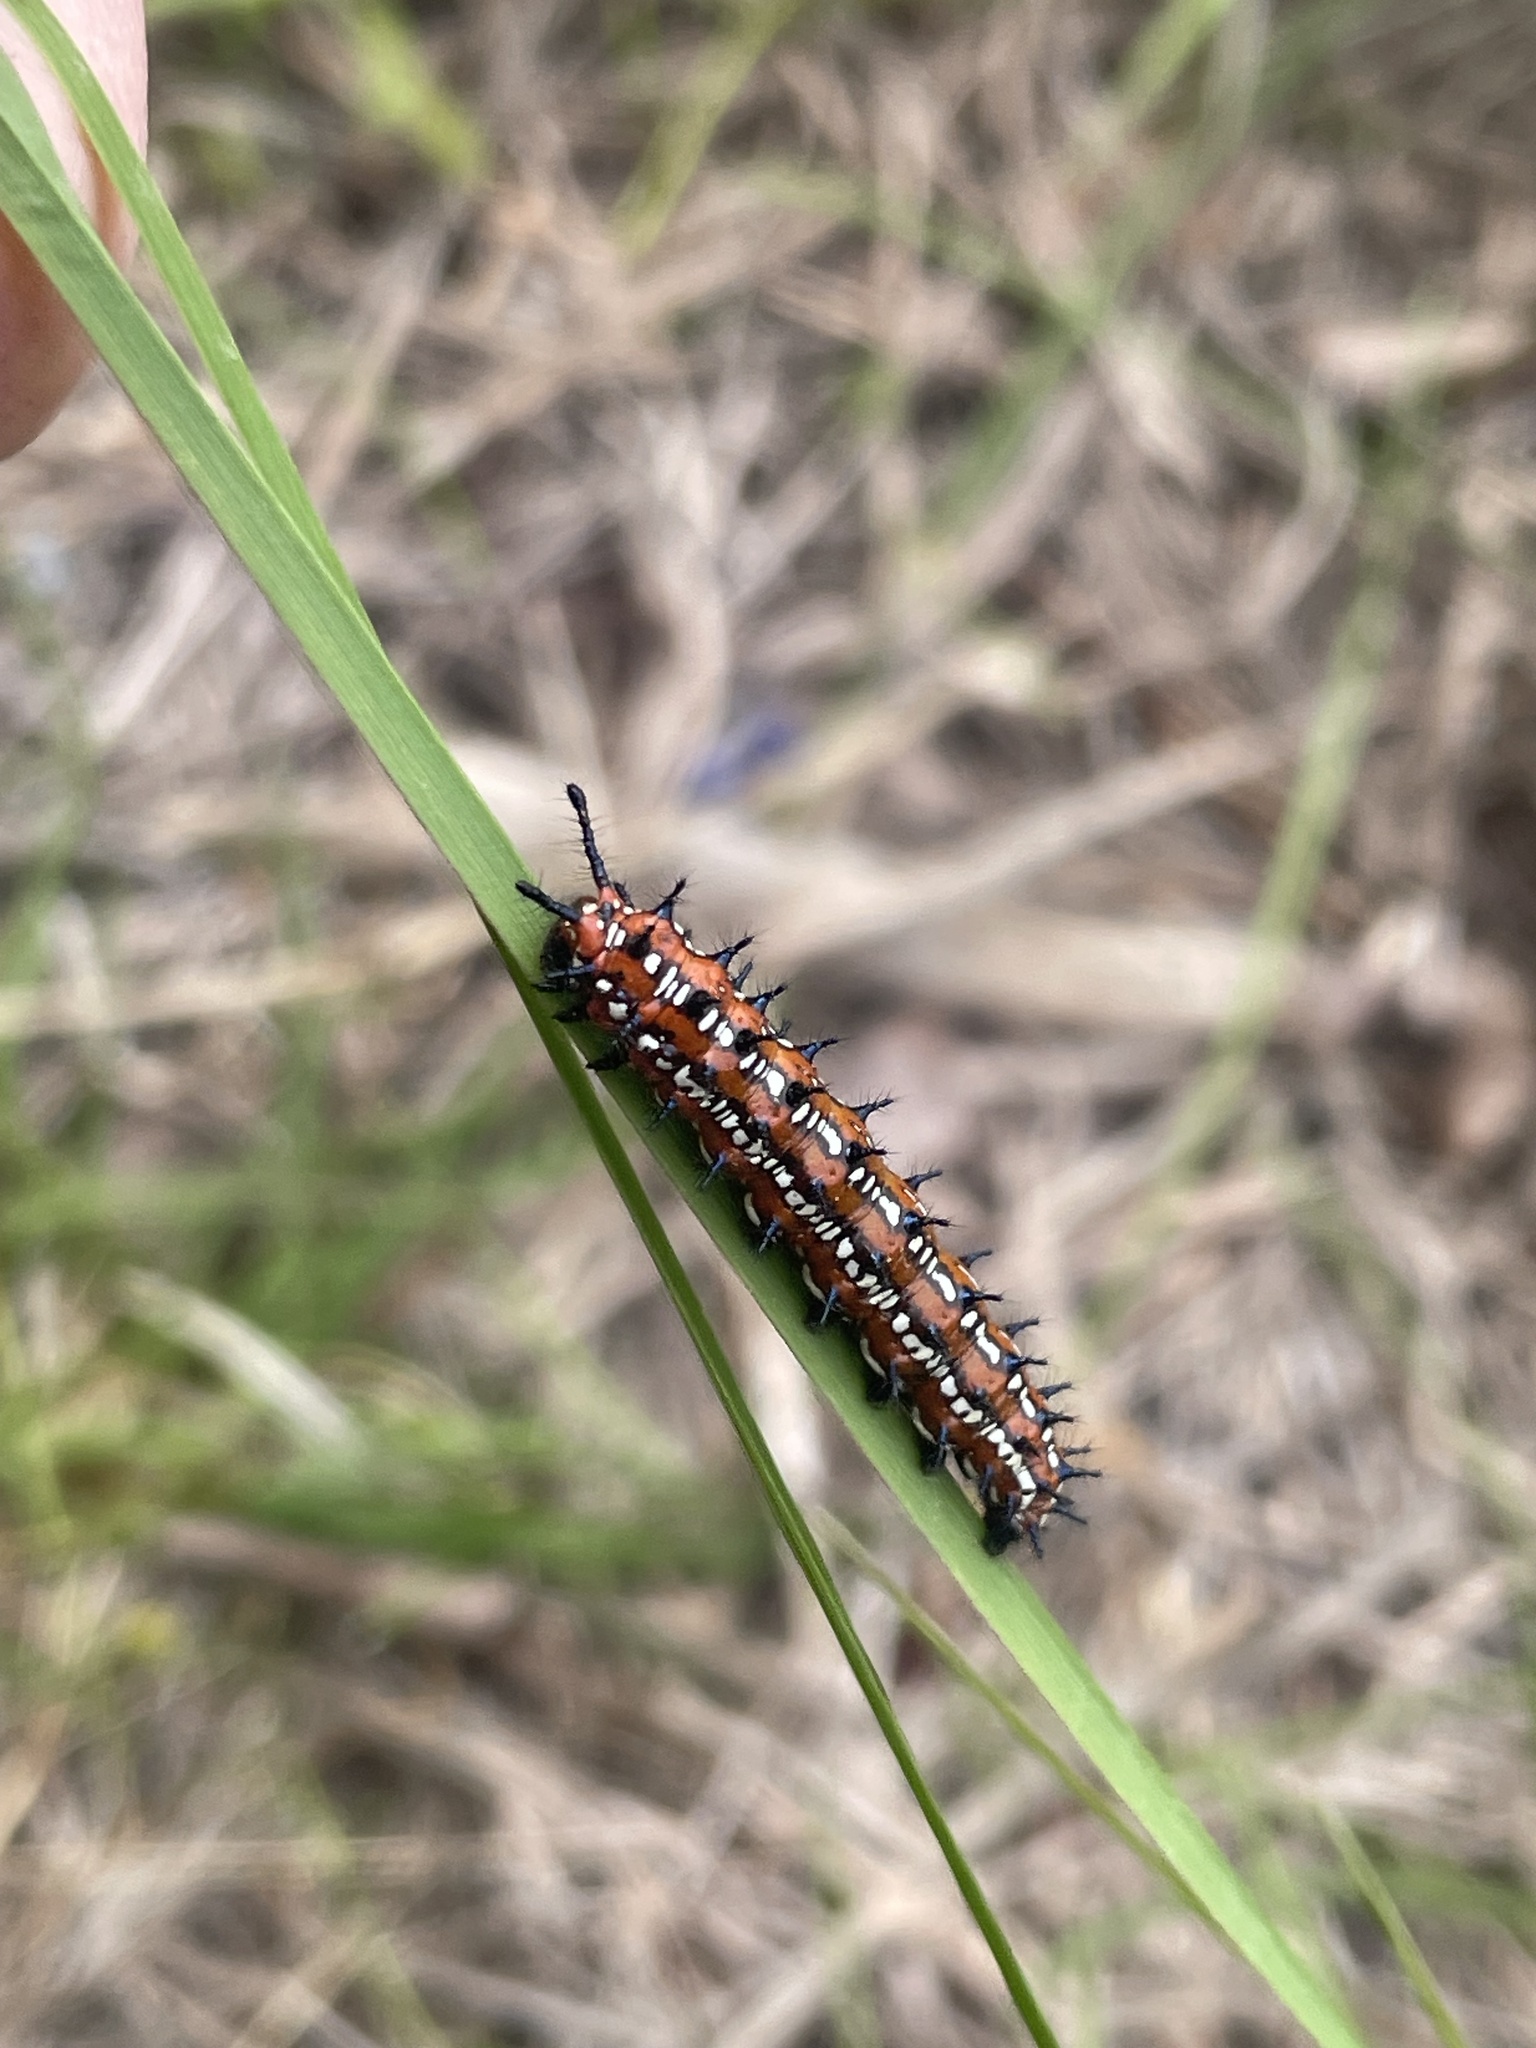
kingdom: Animalia
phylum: Arthropoda
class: Insecta
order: Lepidoptera
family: Nymphalidae
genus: Euptoieta
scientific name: Euptoieta claudia
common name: Variegated fritillary
